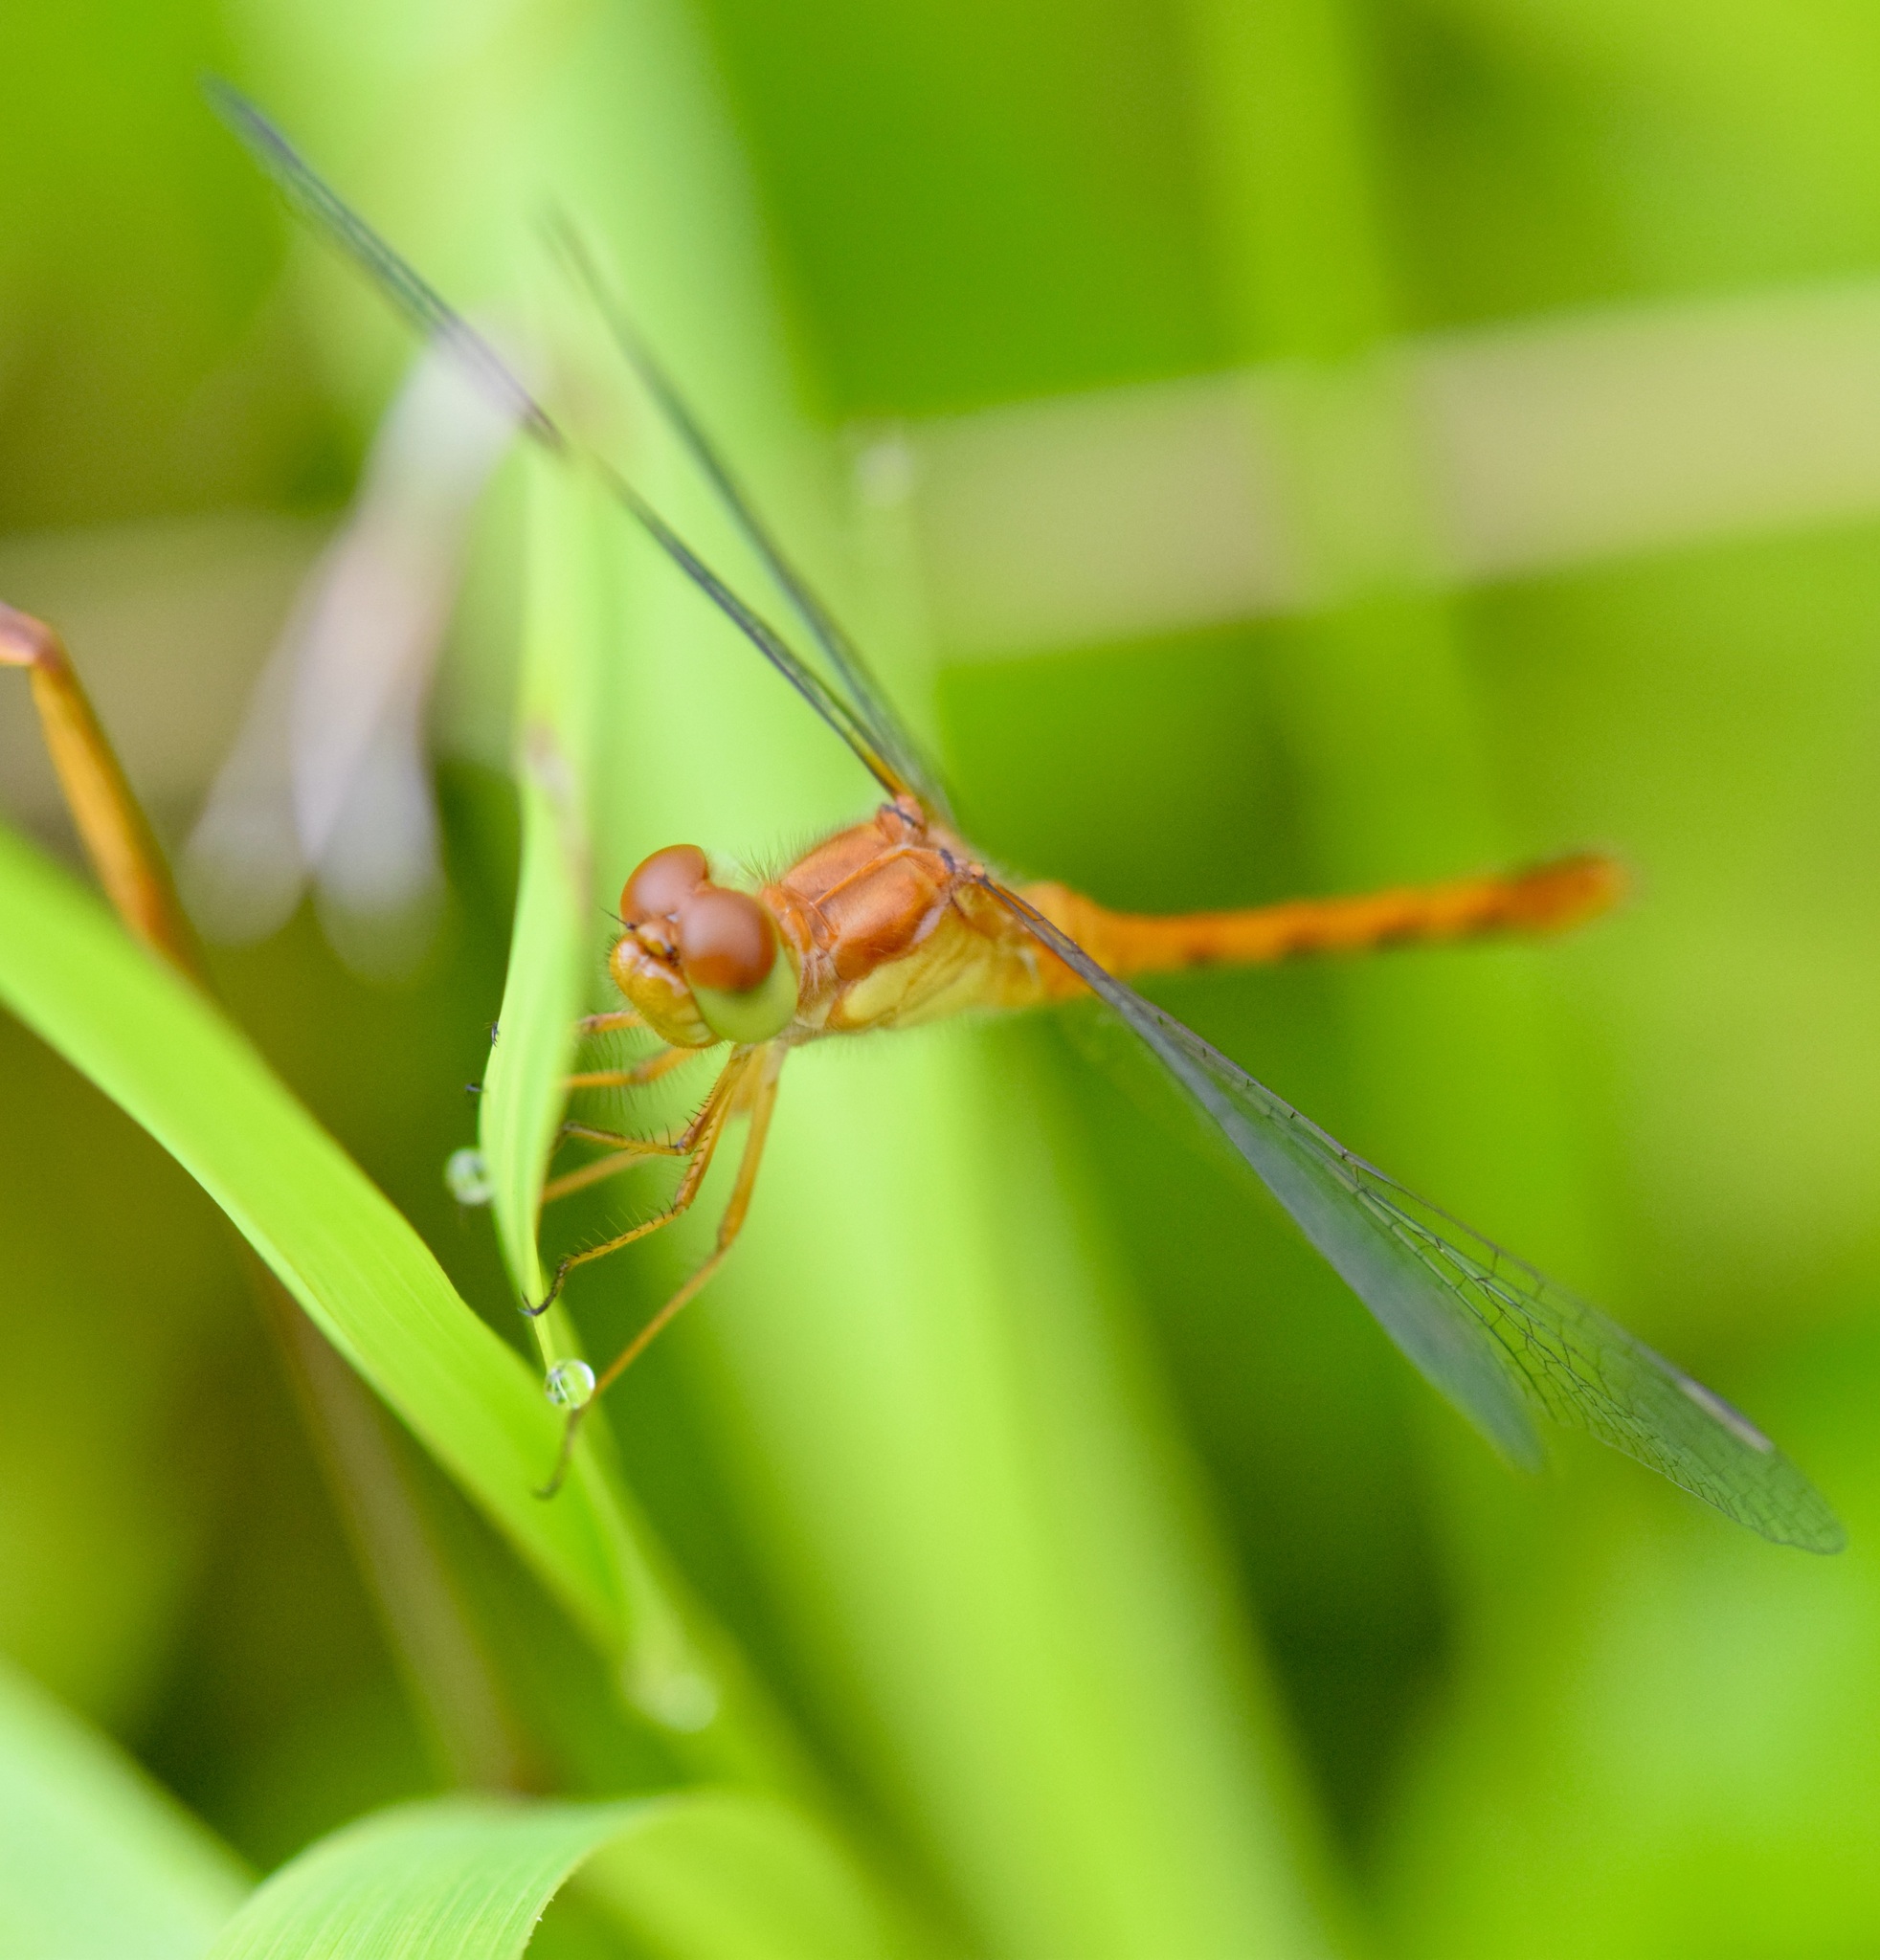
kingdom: Animalia
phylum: Arthropoda
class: Insecta
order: Odonata
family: Libellulidae
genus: Sympetrum
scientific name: Sympetrum vicinum
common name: Autumn meadowhawk
